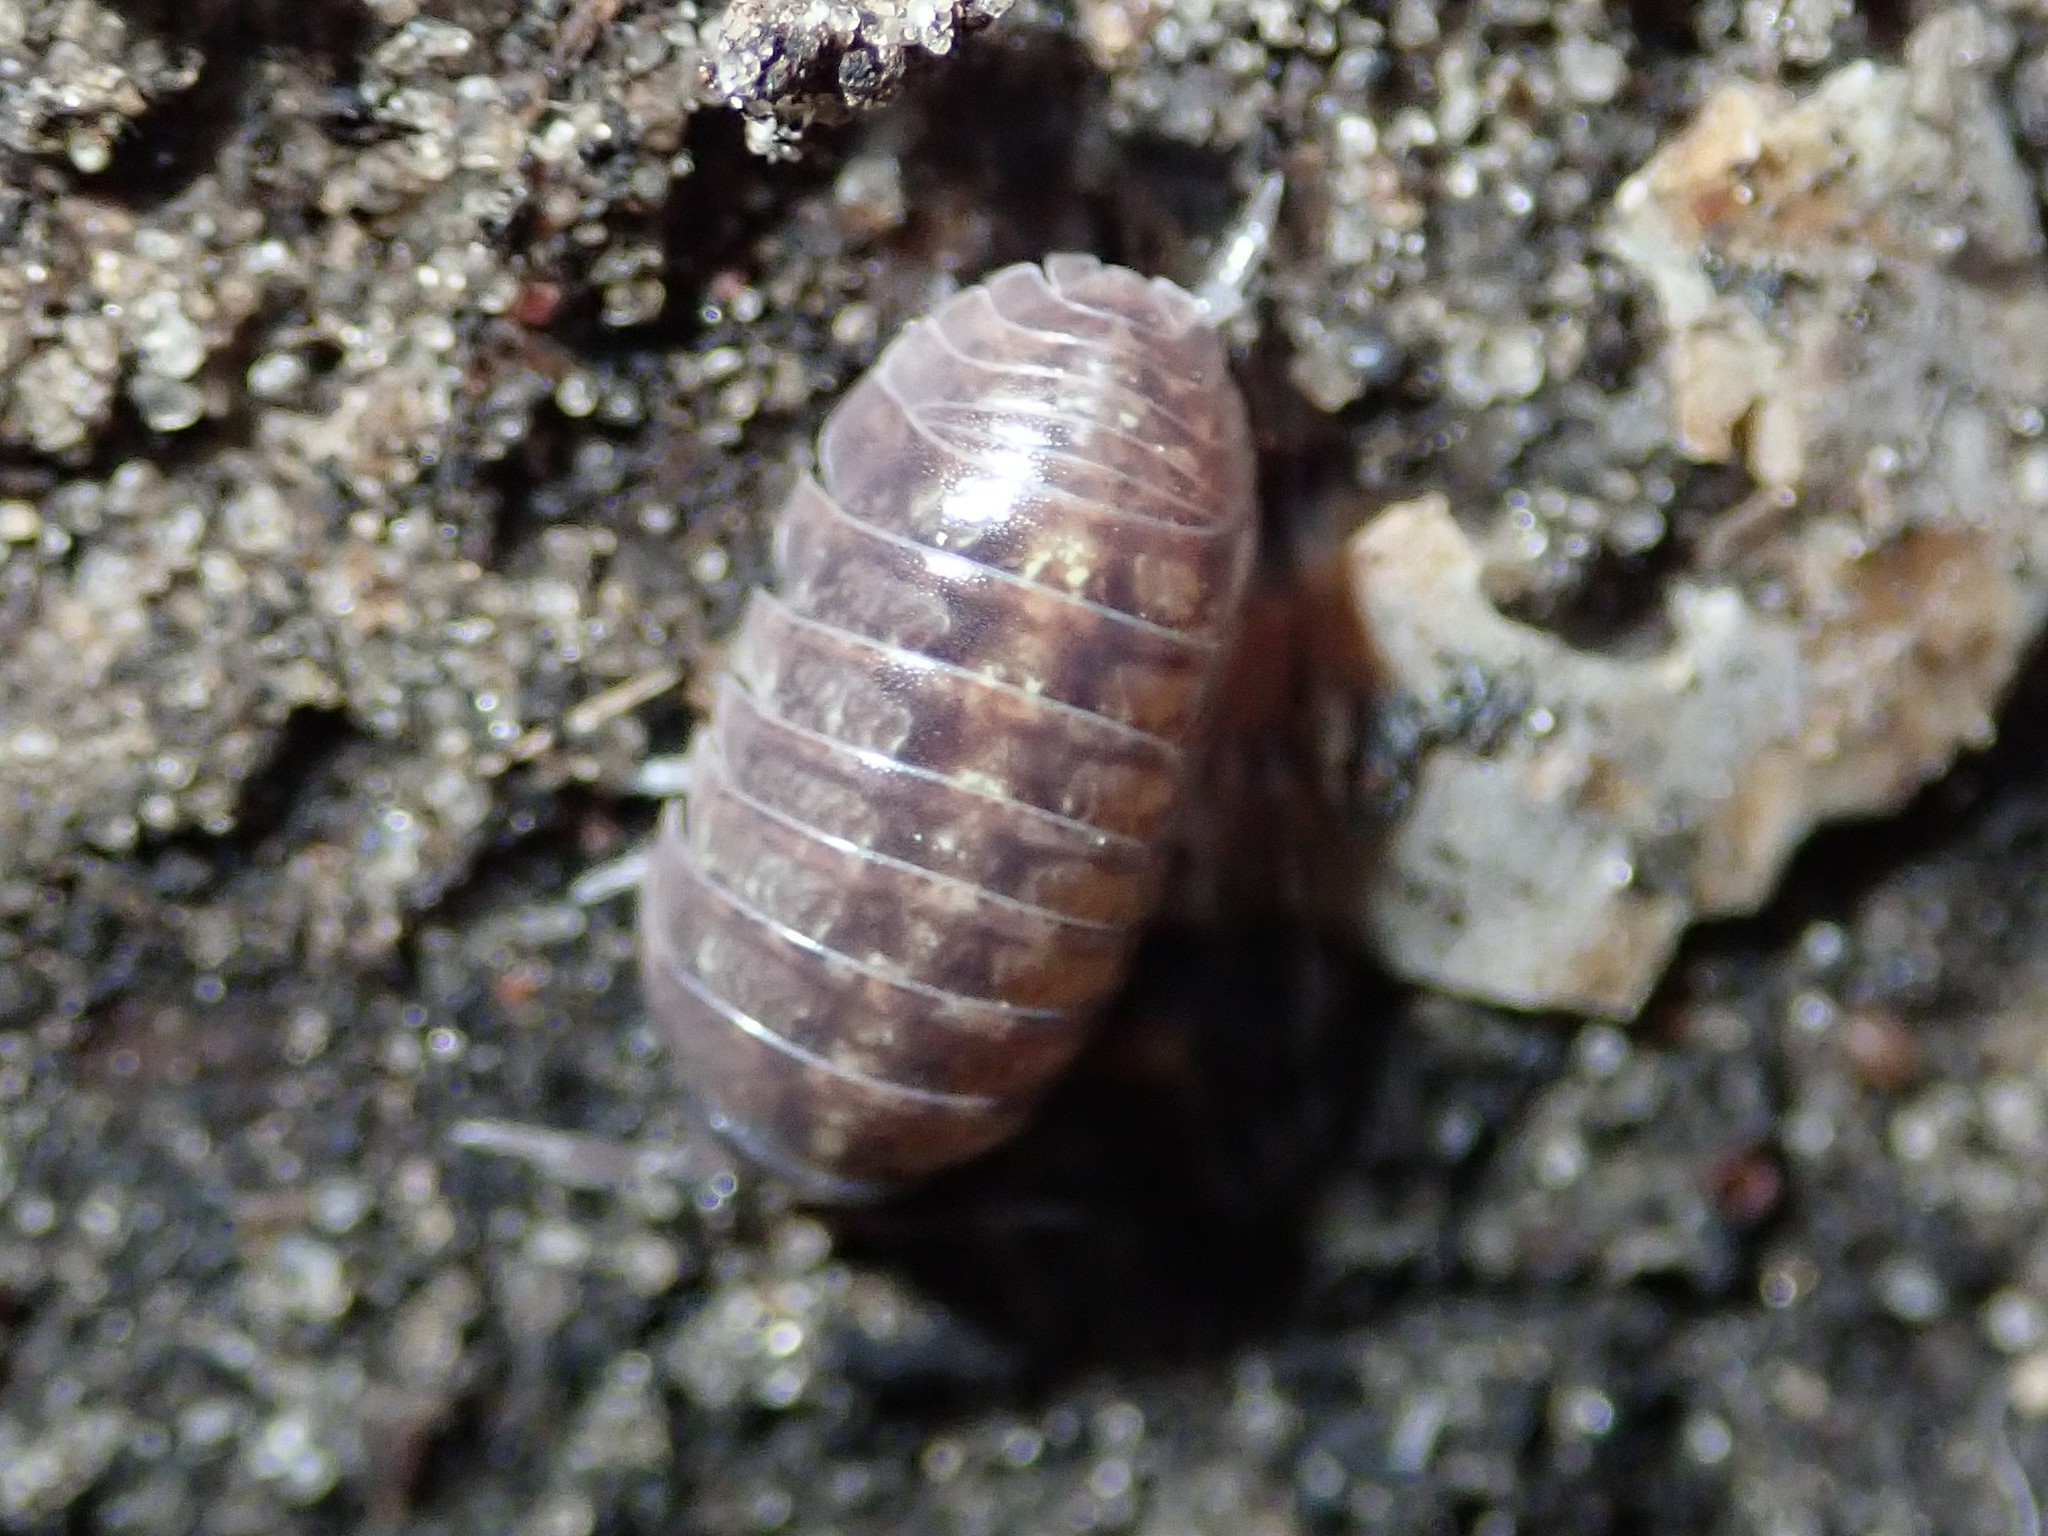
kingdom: Animalia
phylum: Arthropoda
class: Malacostraca
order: Isopoda
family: Armadillidiidae
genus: Armadillidium
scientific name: Armadillidium vulgare
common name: Common pill woodlouse
